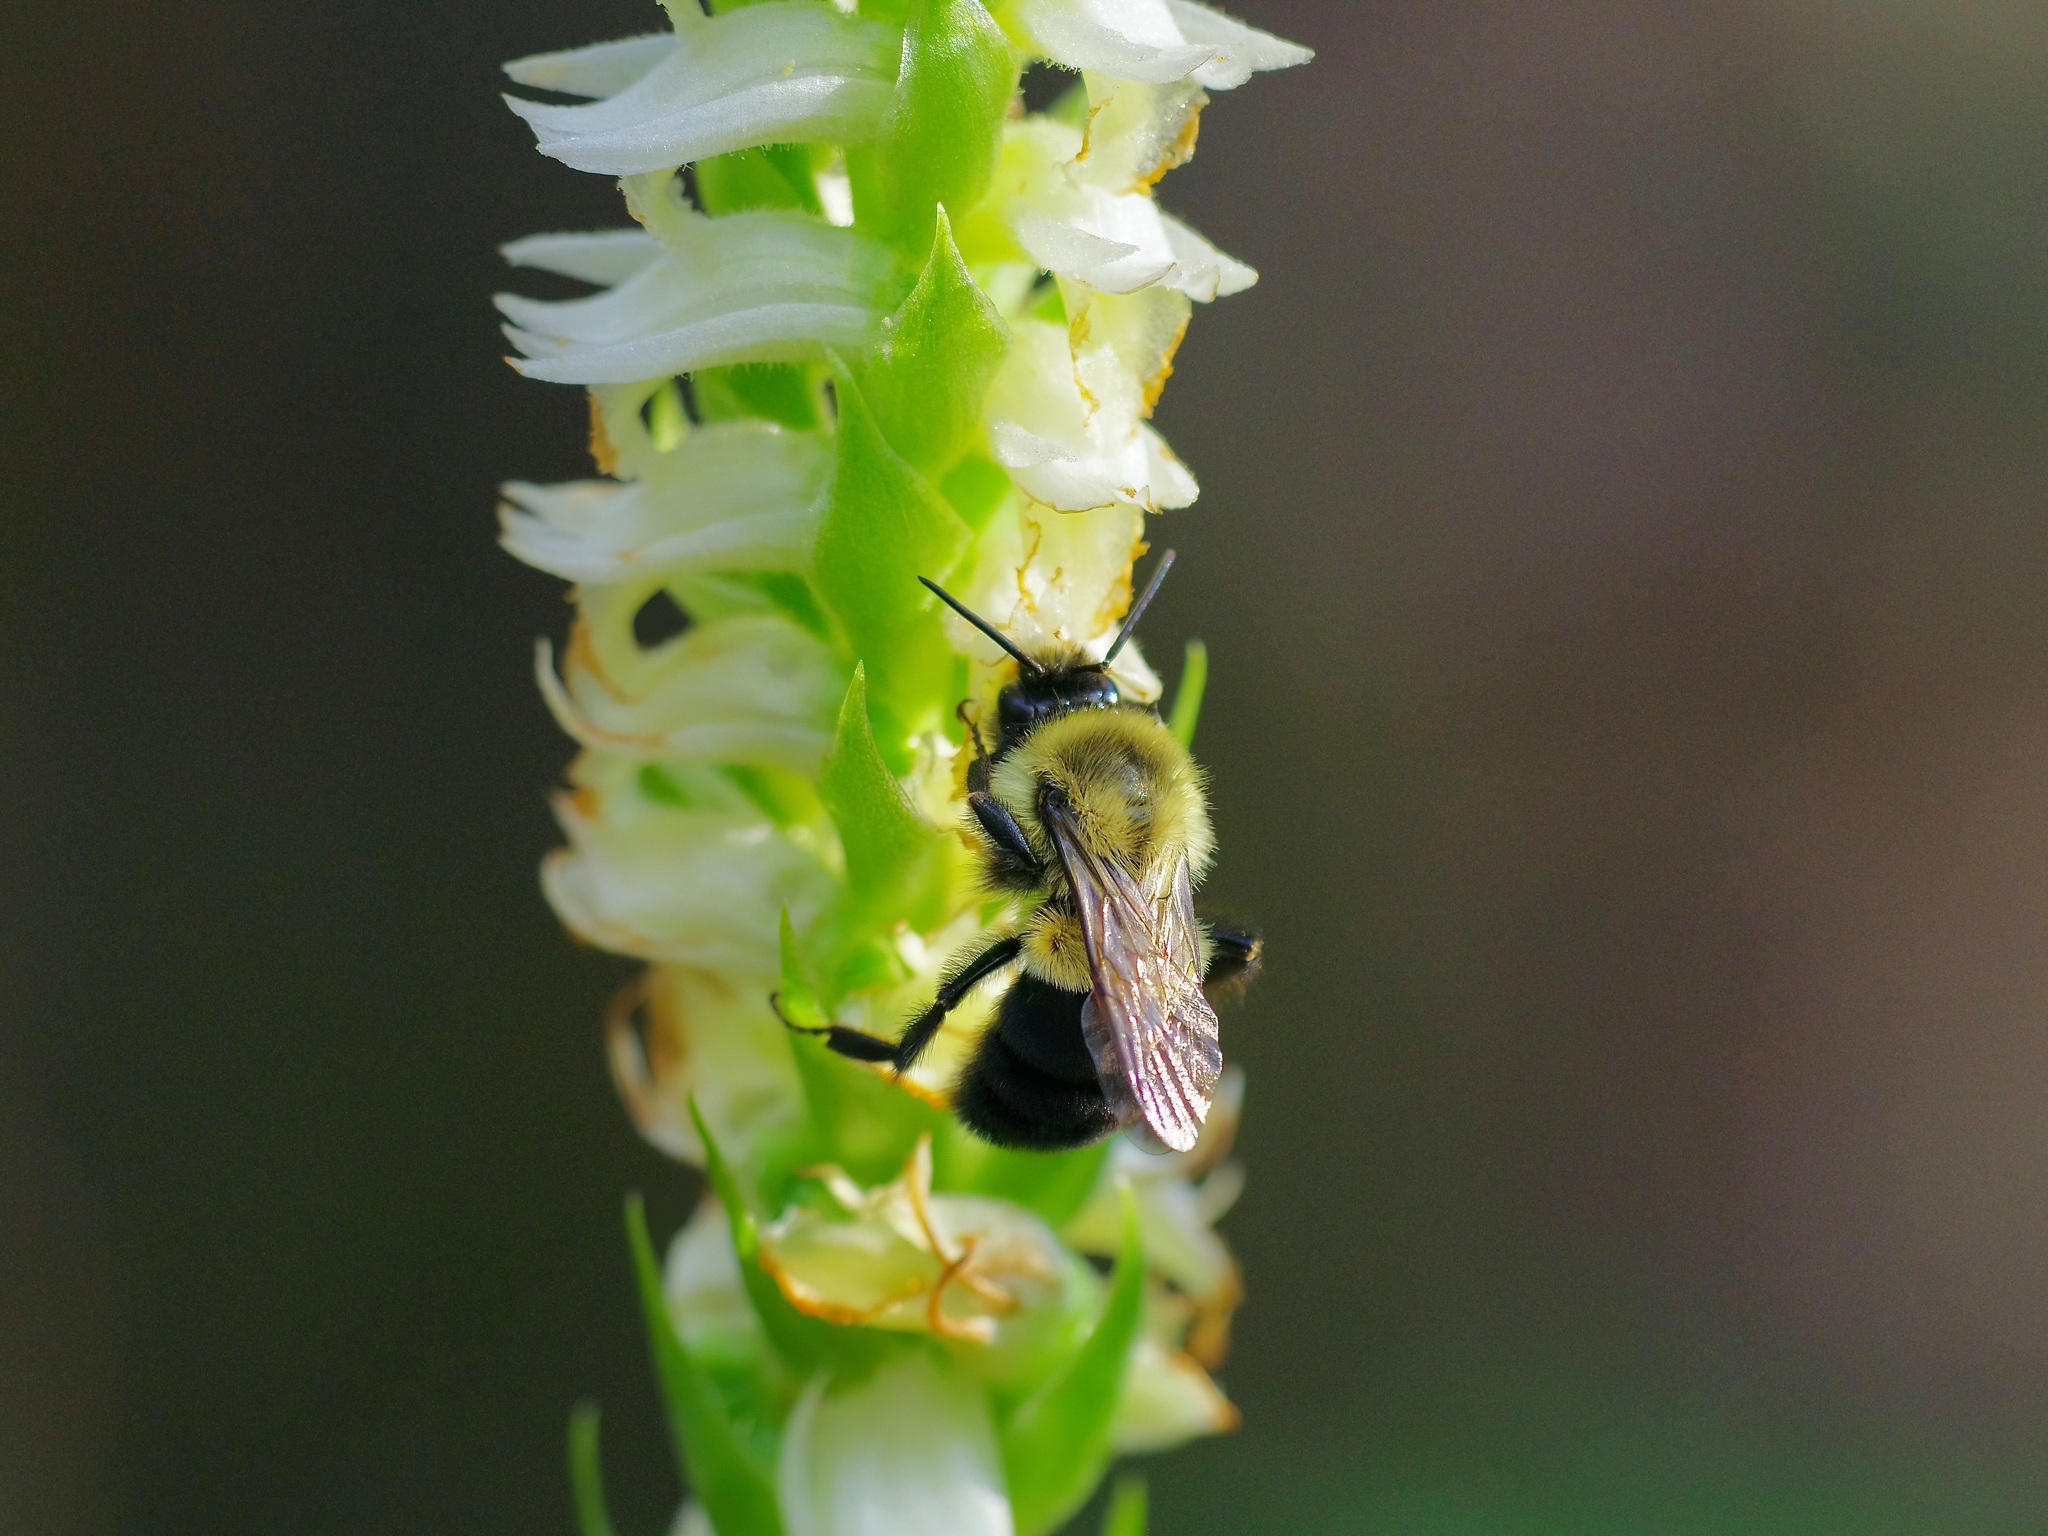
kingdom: Animalia
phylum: Arthropoda
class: Insecta
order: Hymenoptera
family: Apidae
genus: Bombus
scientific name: Bombus impatiens
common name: Common eastern bumble bee
